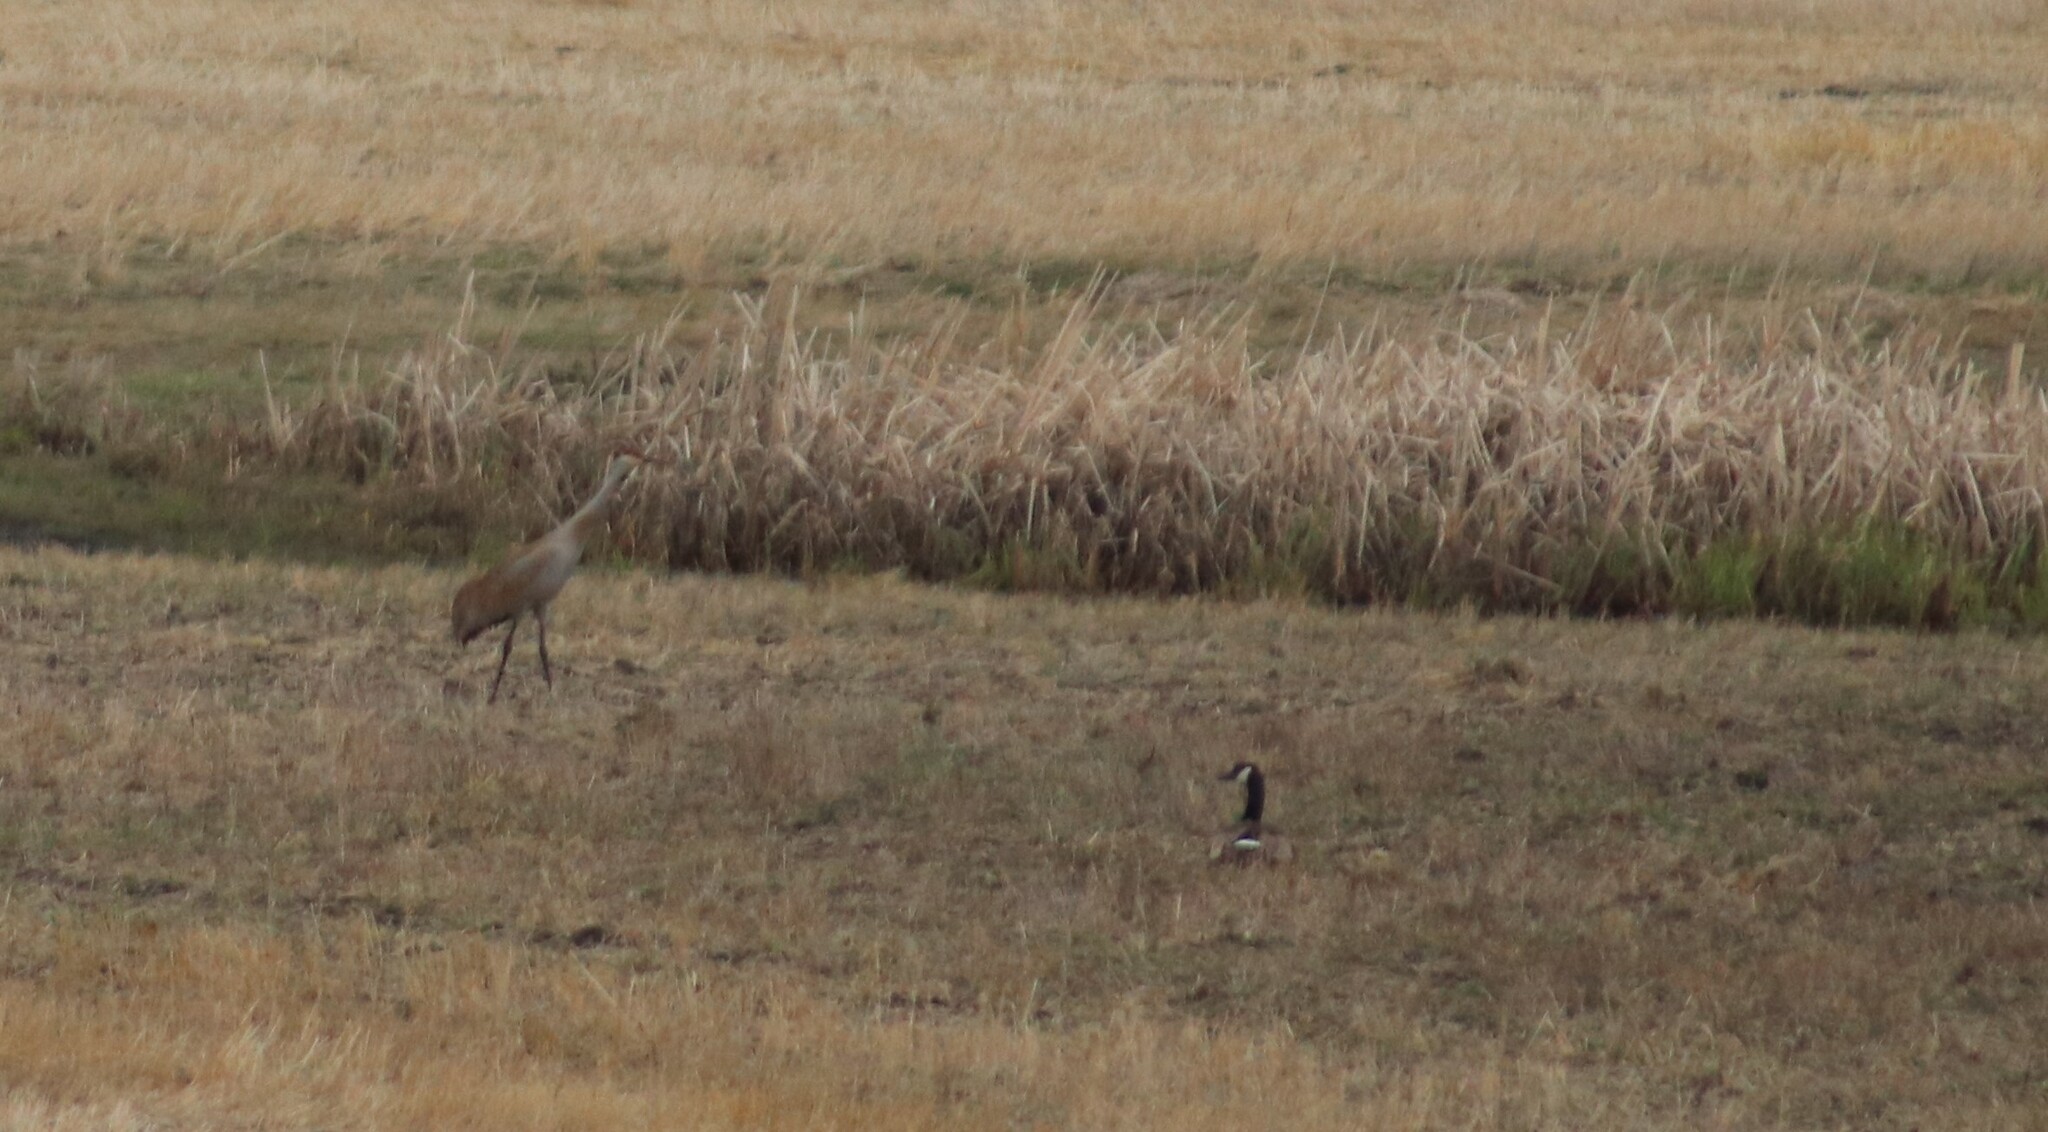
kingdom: Animalia
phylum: Chordata
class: Aves
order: Gruiformes
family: Gruidae
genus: Grus
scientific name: Grus canadensis
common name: Sandhill crane
